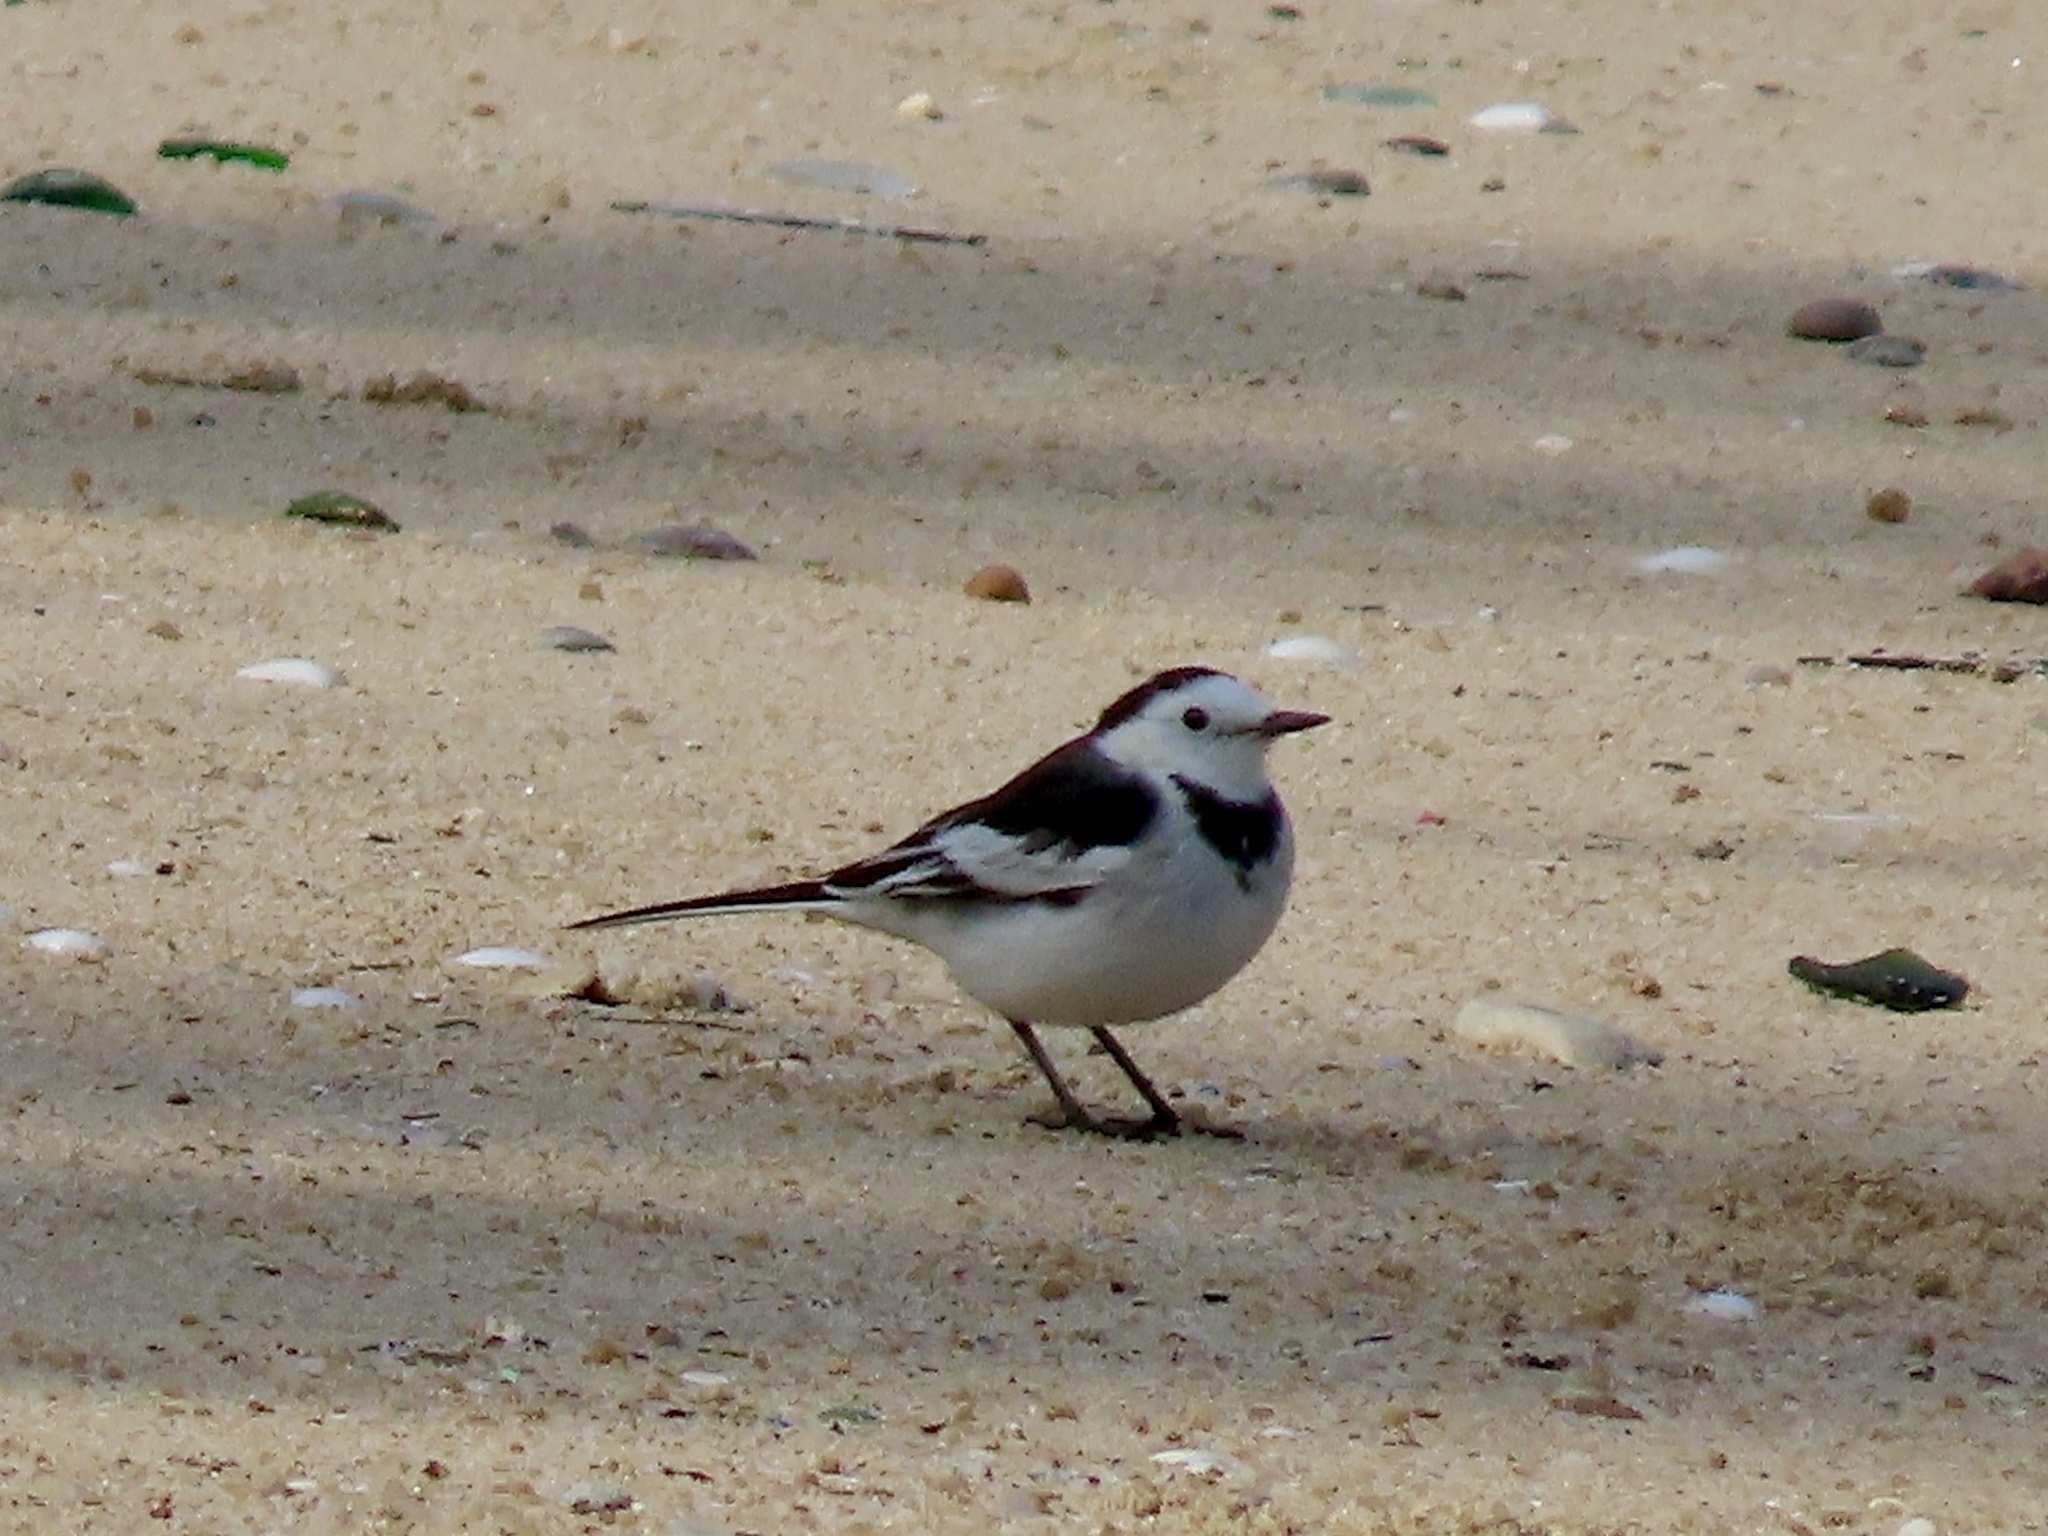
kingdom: Animalia
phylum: Chordata
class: Aves
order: Passeriformes
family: Motacillidae
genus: Motacilla
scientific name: Motacilla alba
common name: White wagtail
